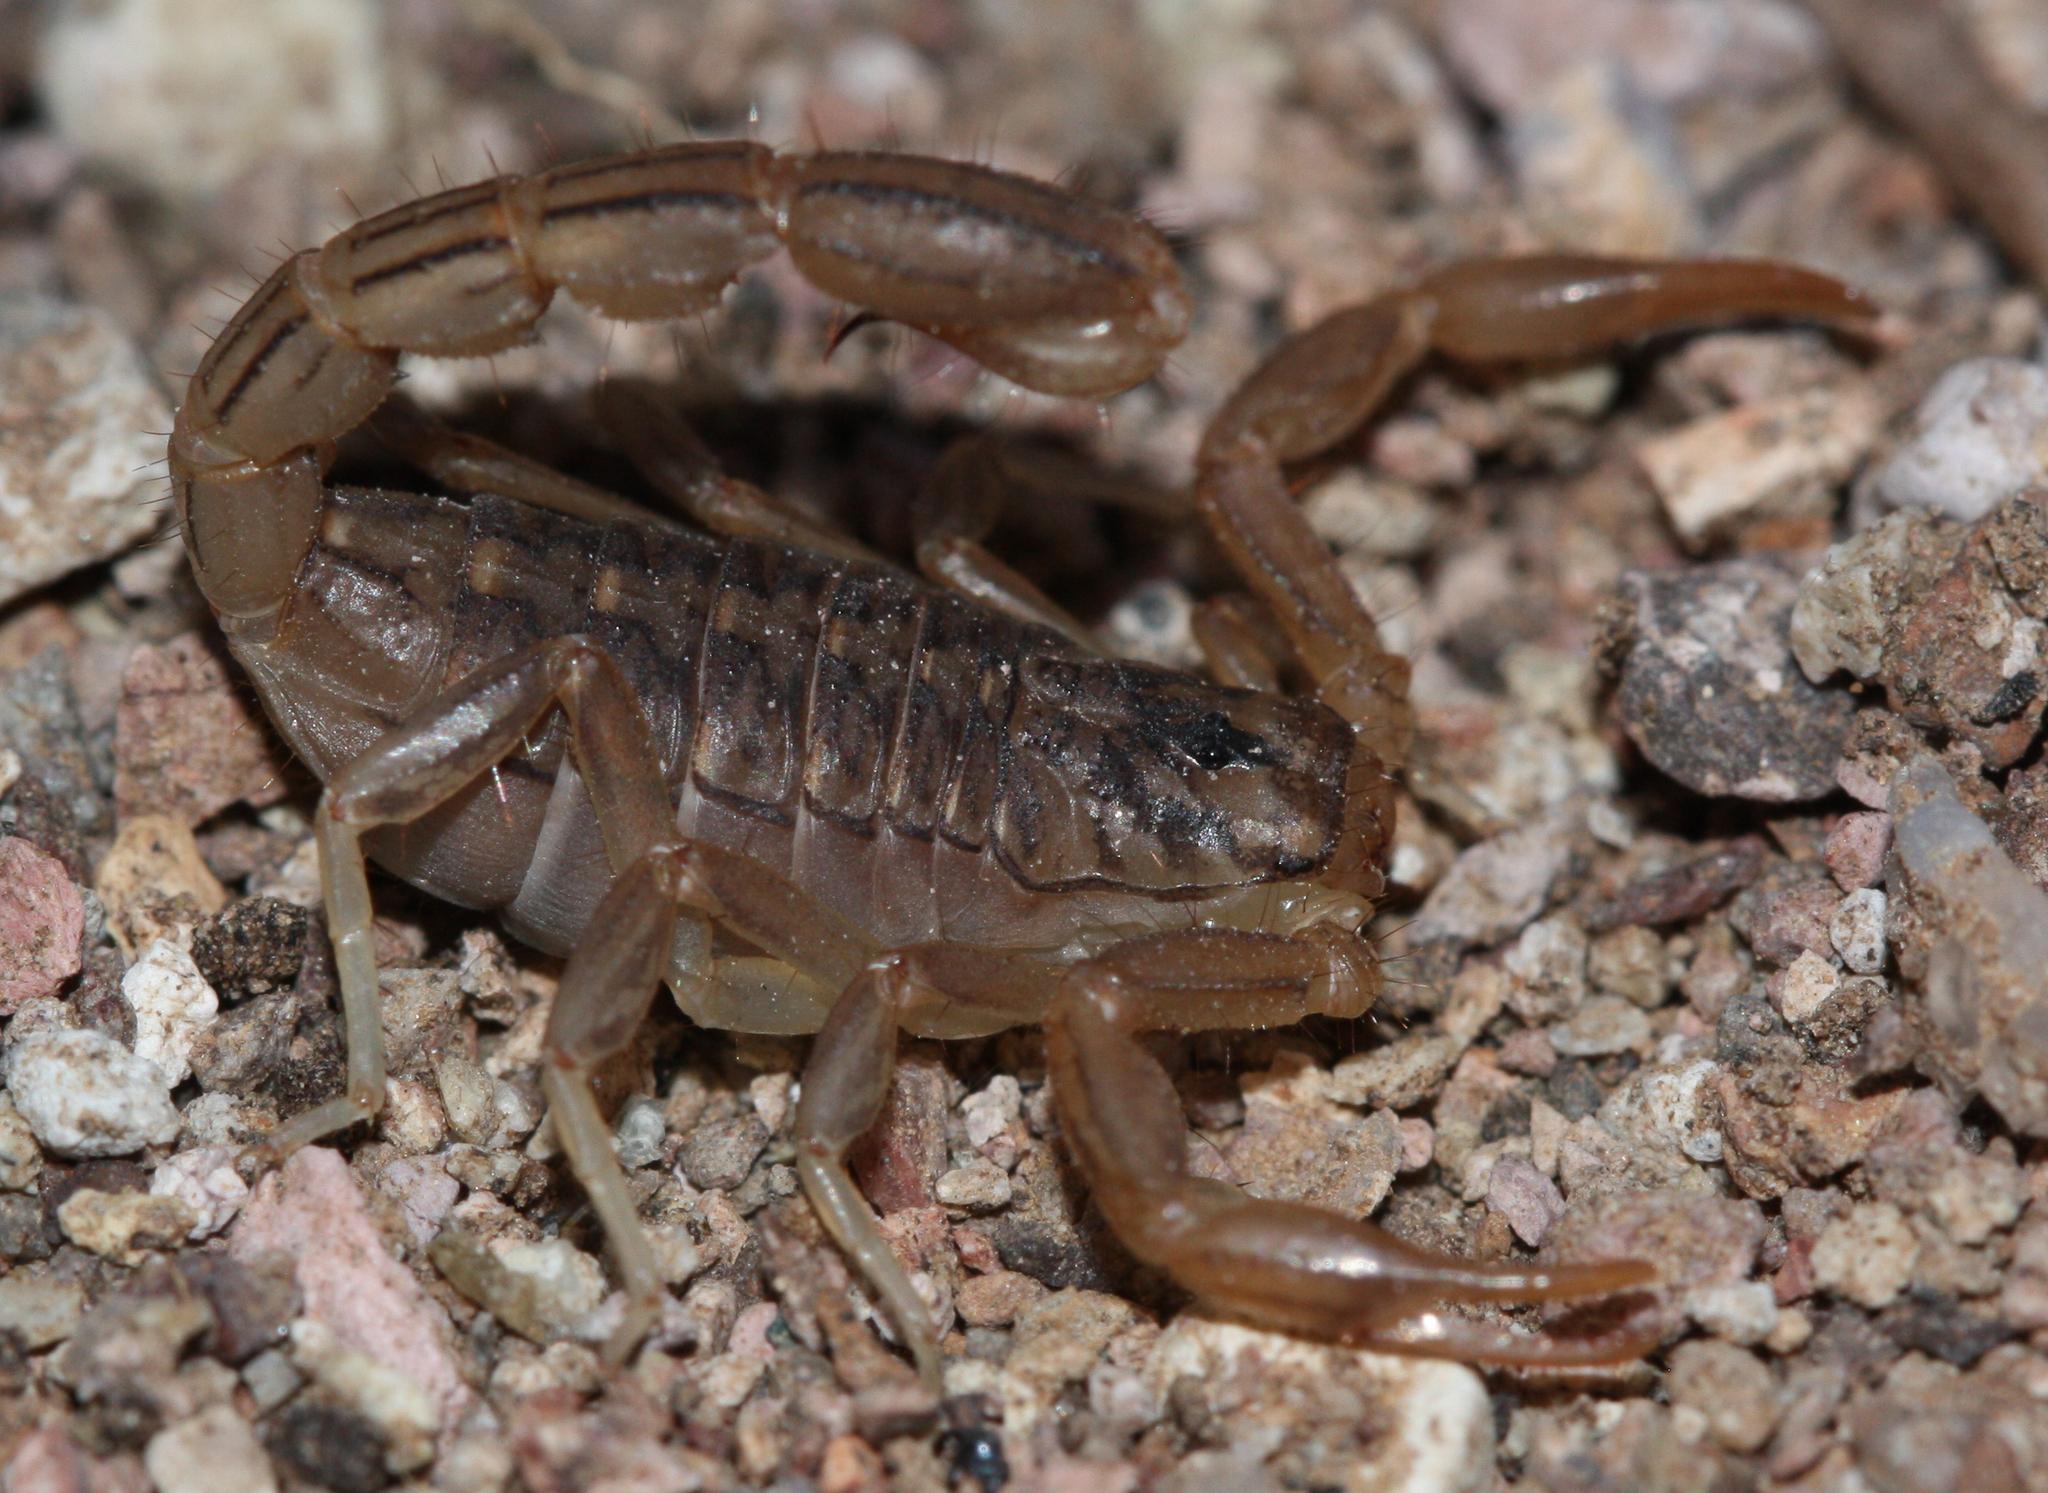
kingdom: Animalia
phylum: Arthropoda
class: Arachnida
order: Scorpiones
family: Vaejovidae
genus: Paravaejovis
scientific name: Paravaejovis spinigerus
